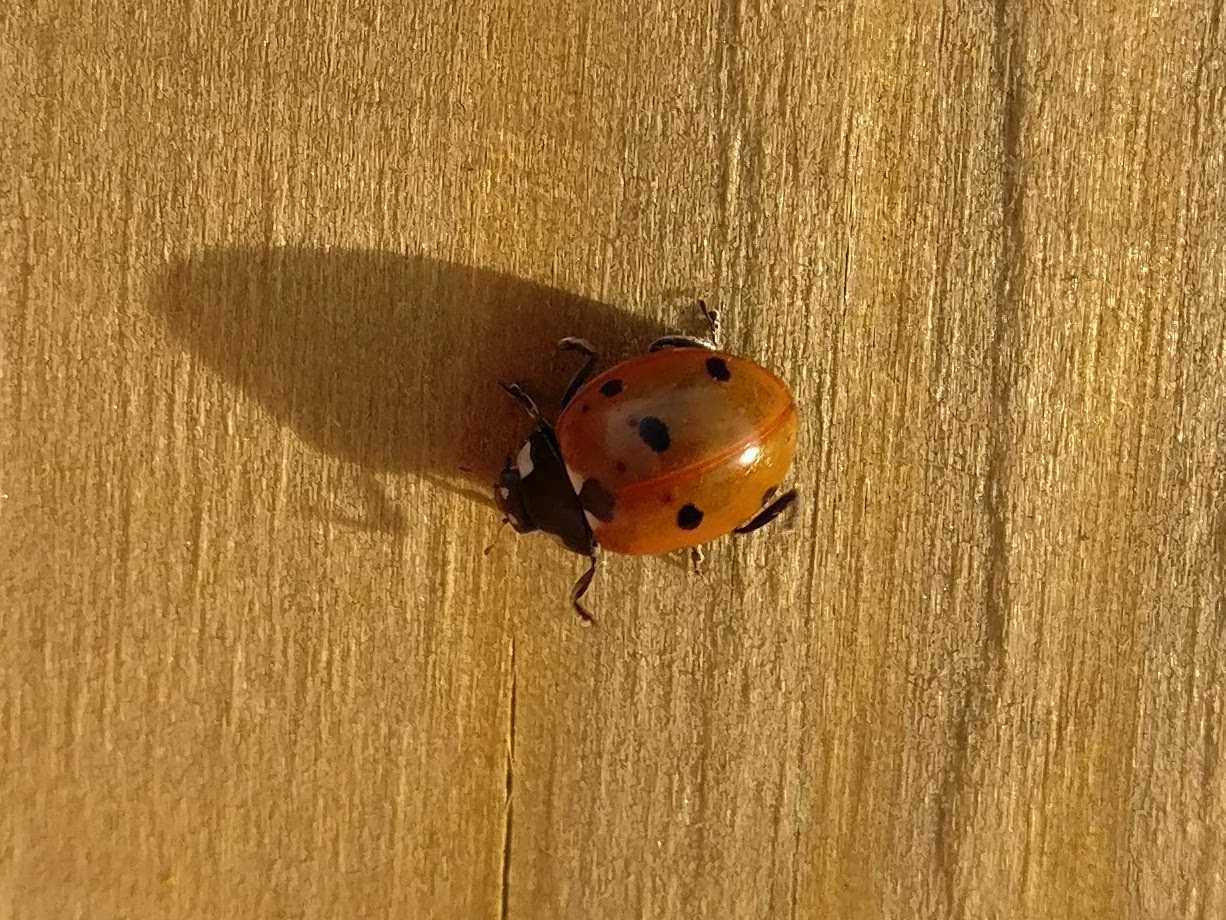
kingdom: Animalia
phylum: Arthropoda
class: Insecta
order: Coleoptera
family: Coccinellidae
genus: Coccinella
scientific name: Coccinella septempunctata
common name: Sevenspotted lady beetle
